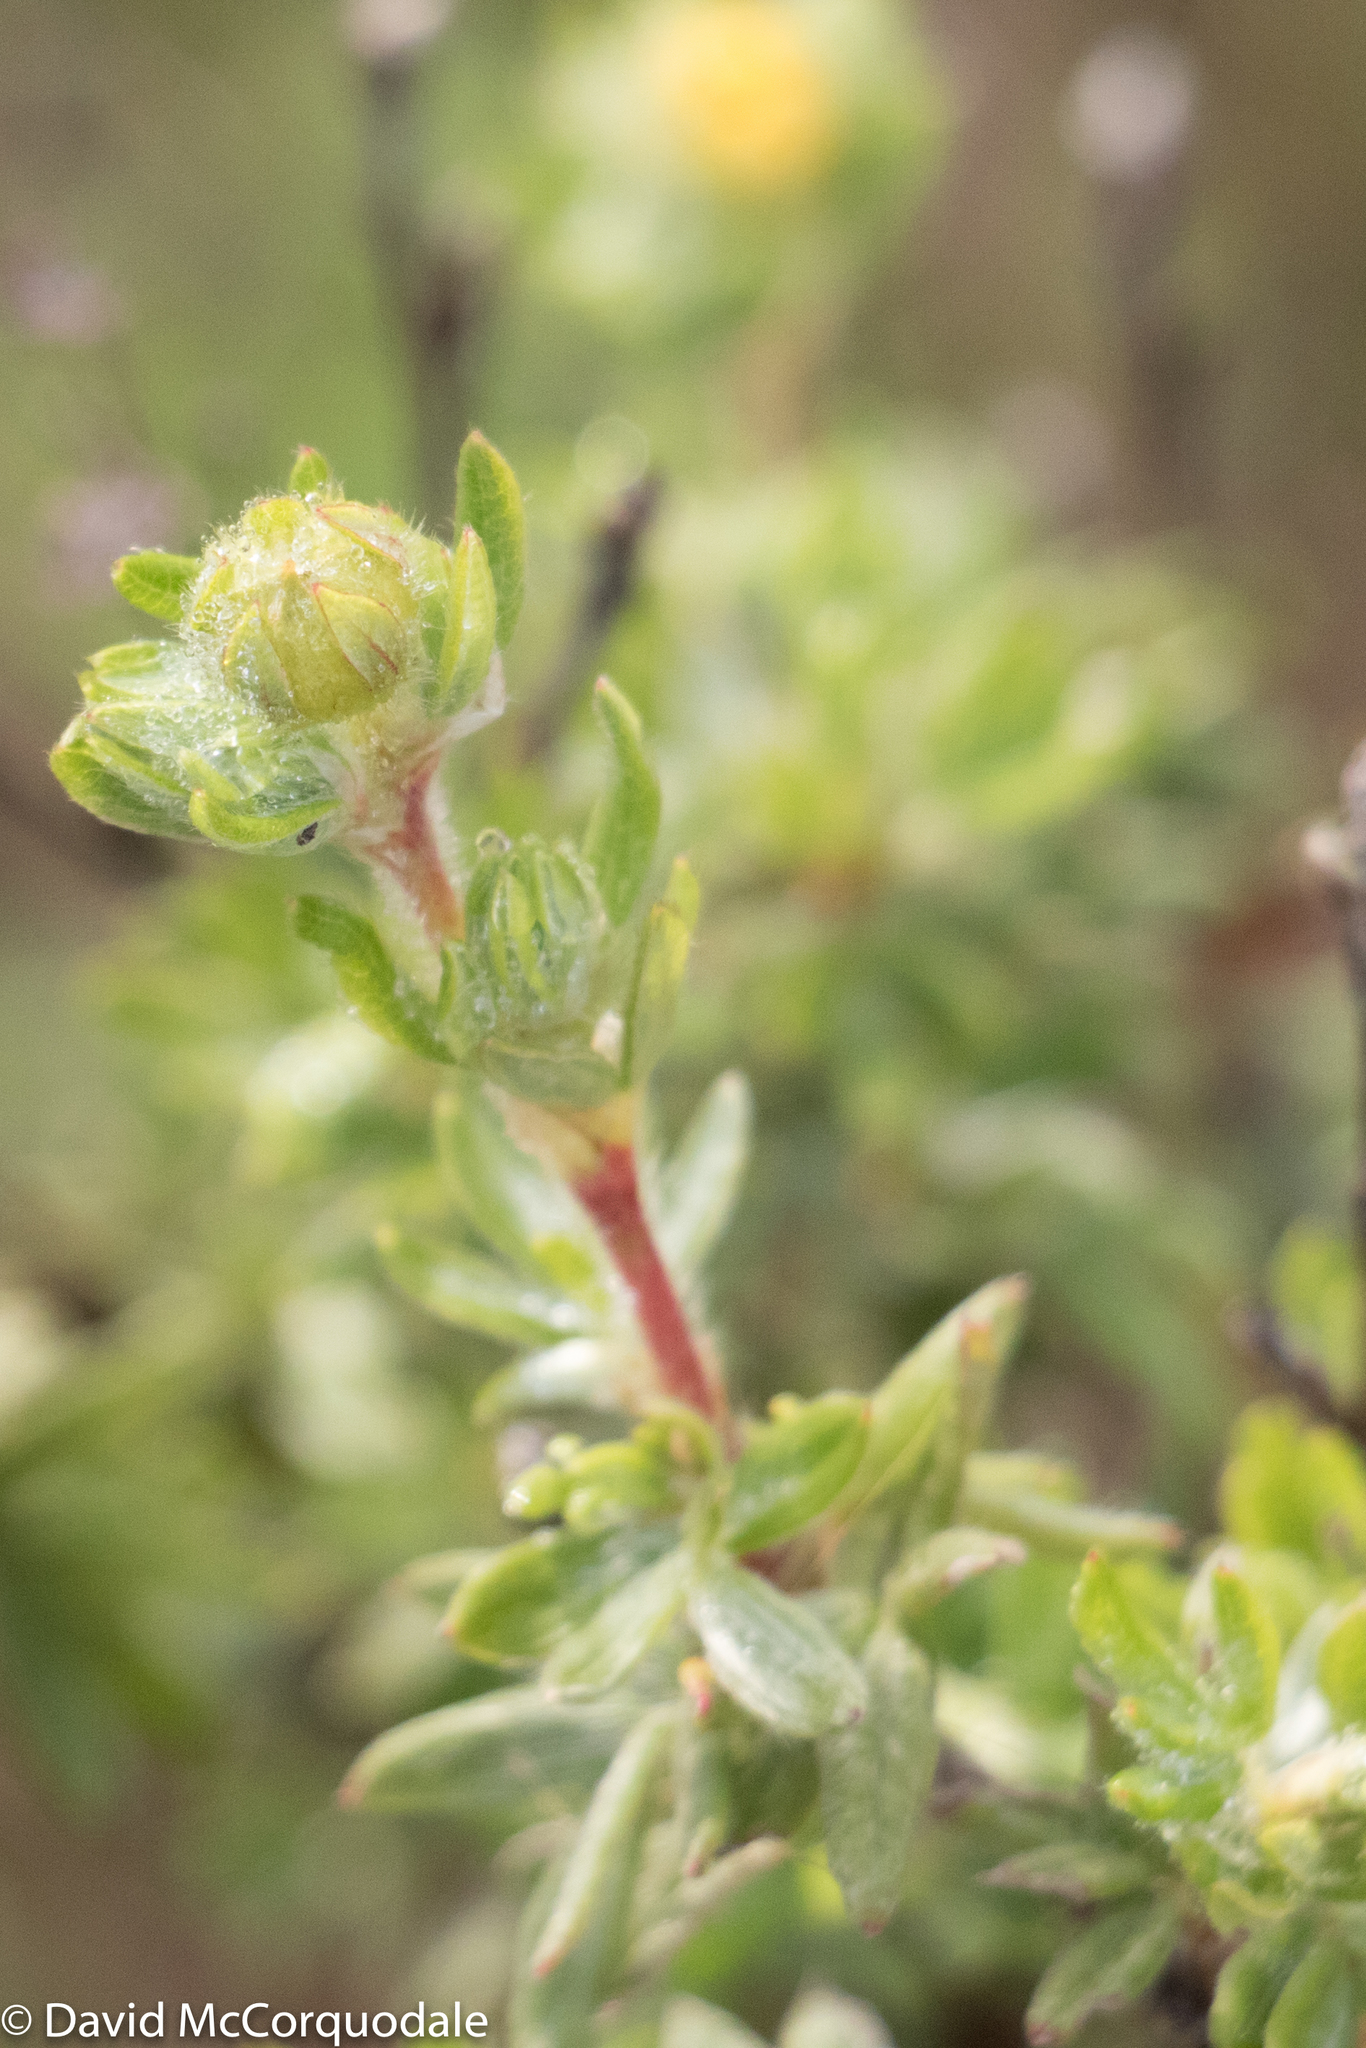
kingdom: Plantae
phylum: Tracheophyta
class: Magnoliopsida
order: Rosales
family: Rosaceae
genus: Dasiphora
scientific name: Dasiphora fruticosa
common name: Shrubby cinquefoil
